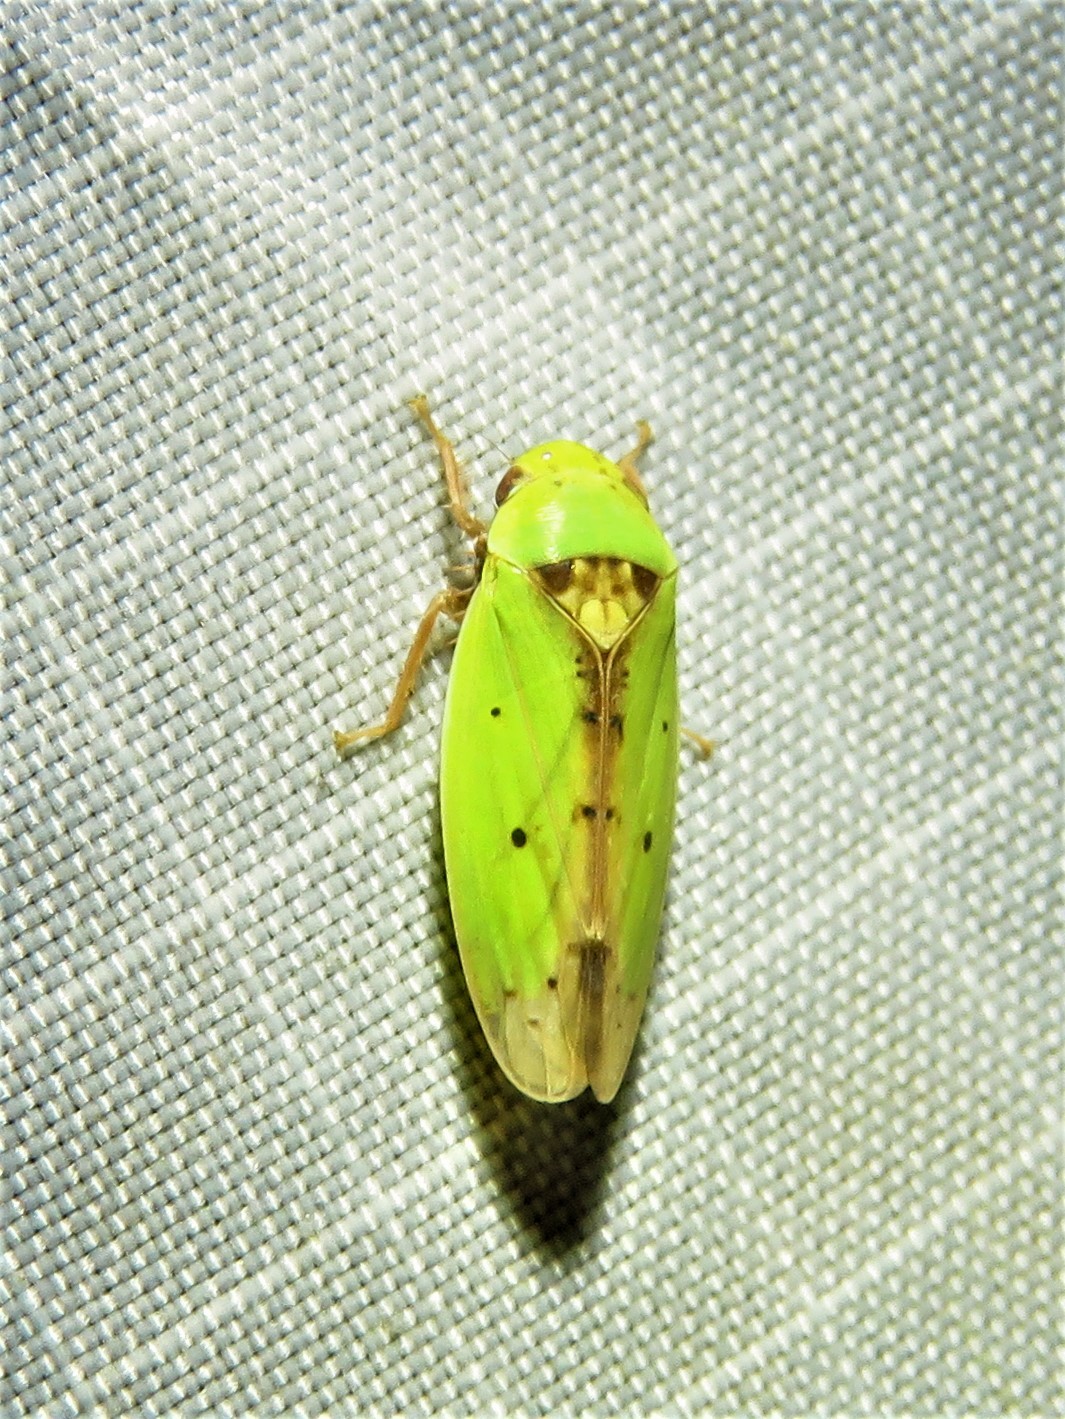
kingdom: Animalia
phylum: Arthropoda
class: Insecta
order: Hemiptera
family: Cicadellidae
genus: Ponana
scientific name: Ponana
